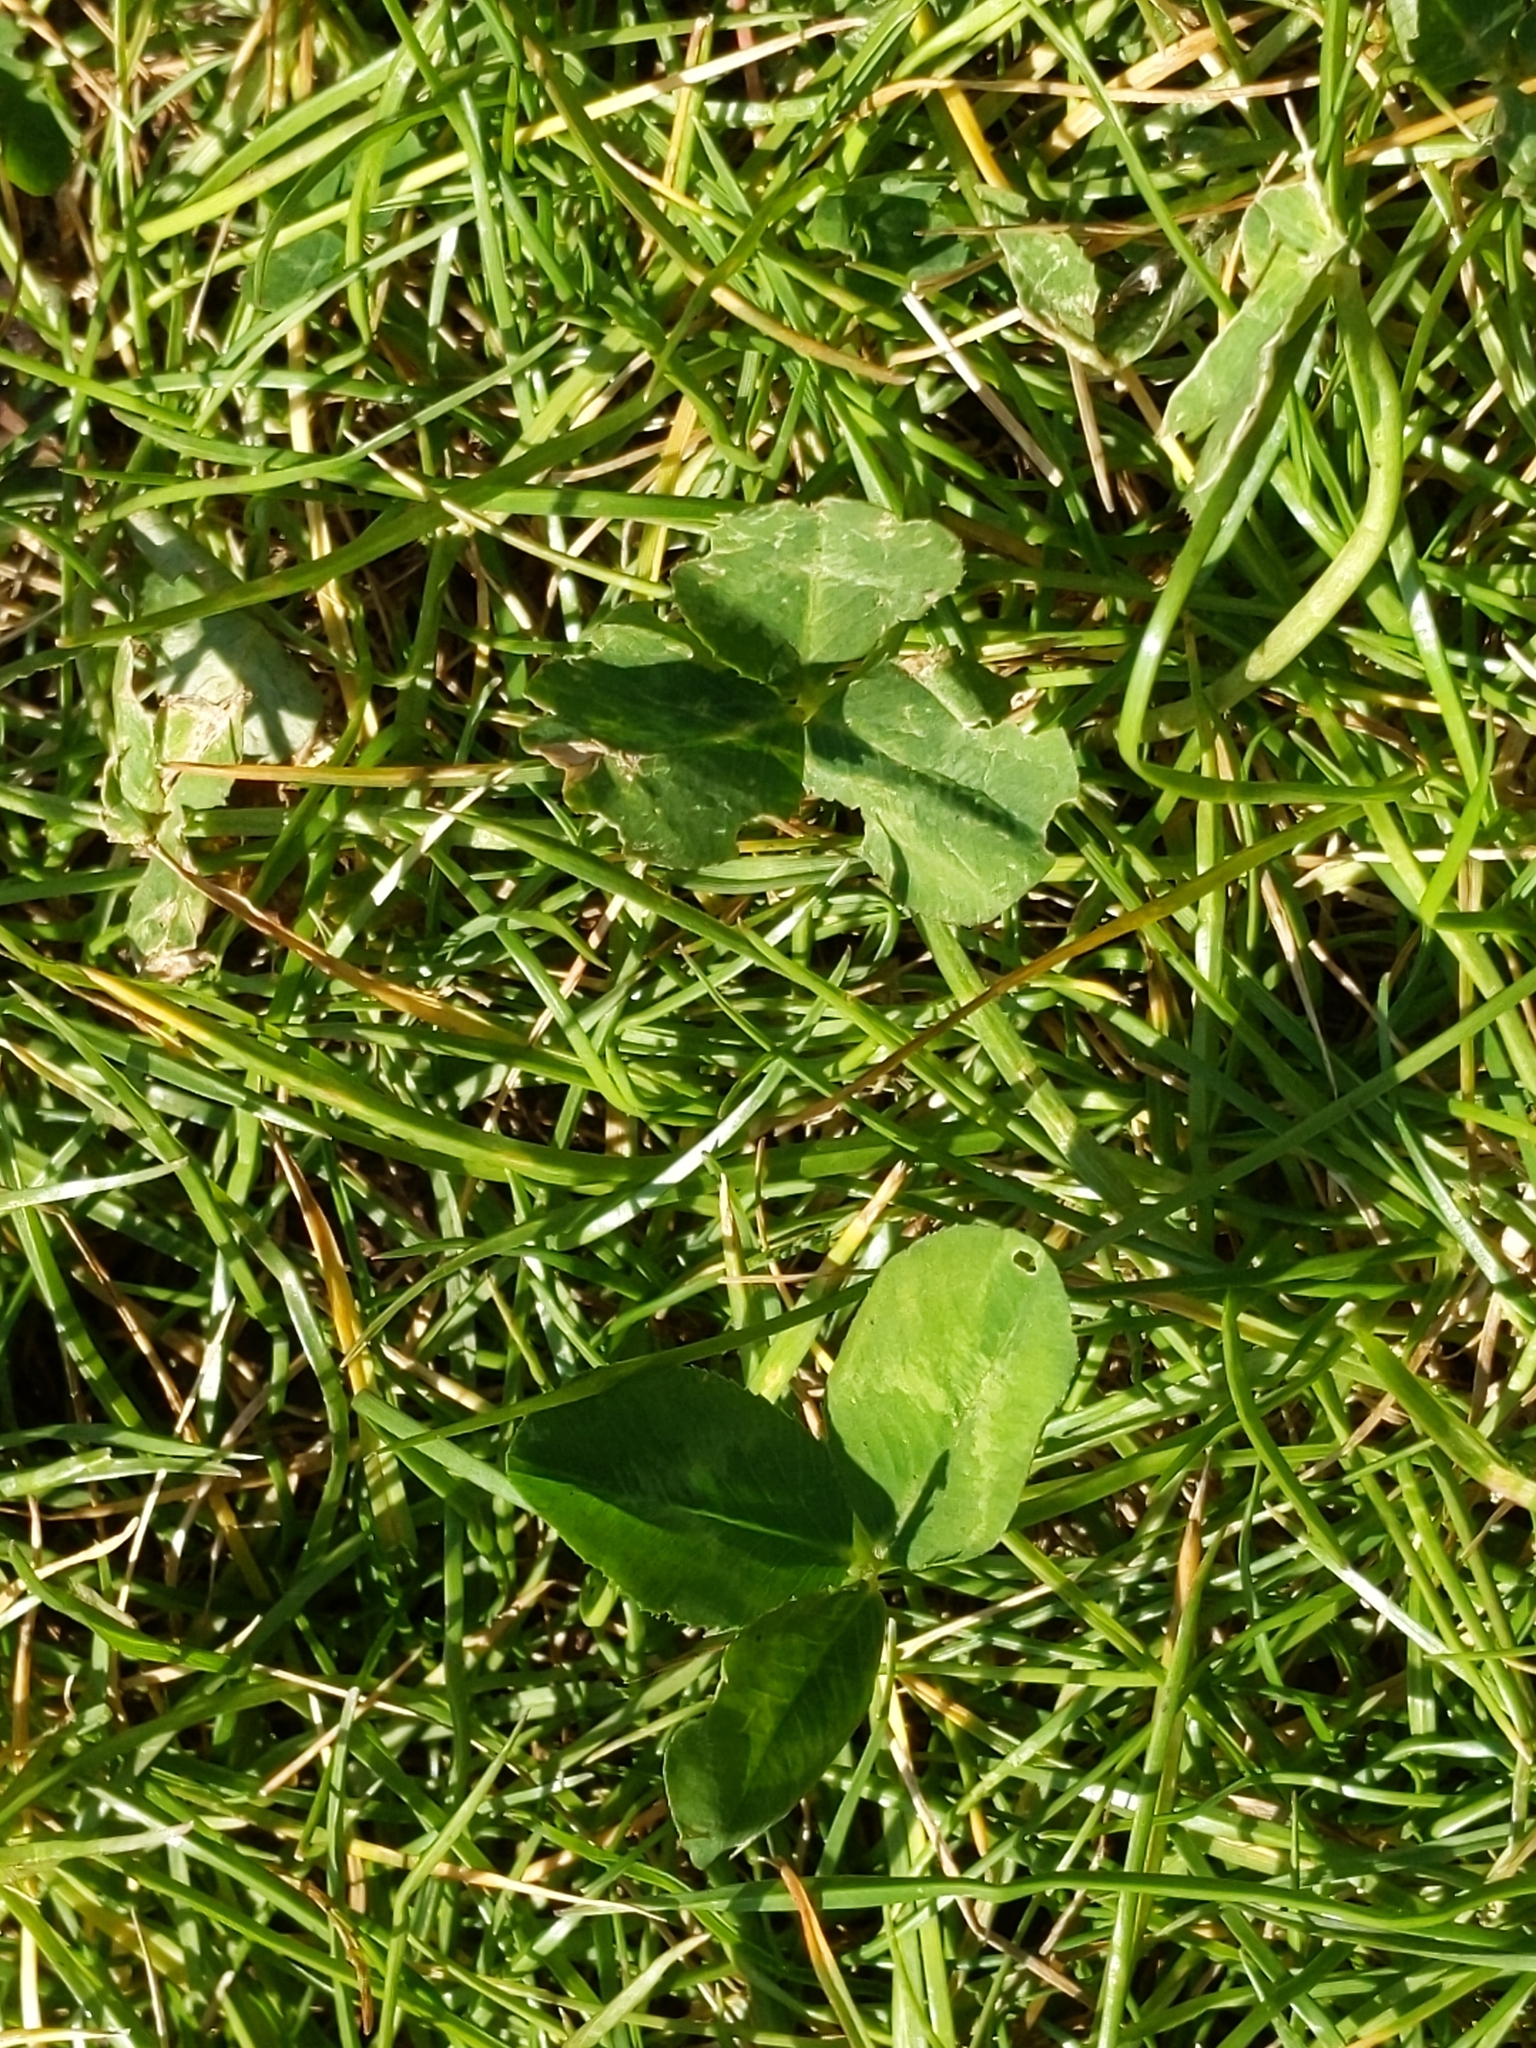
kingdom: Plantae
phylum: Tracheophyta
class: Magnoliopsida
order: Fabales
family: Fabaceae
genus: Trifolium
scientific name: Trifolium repens
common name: White clover
